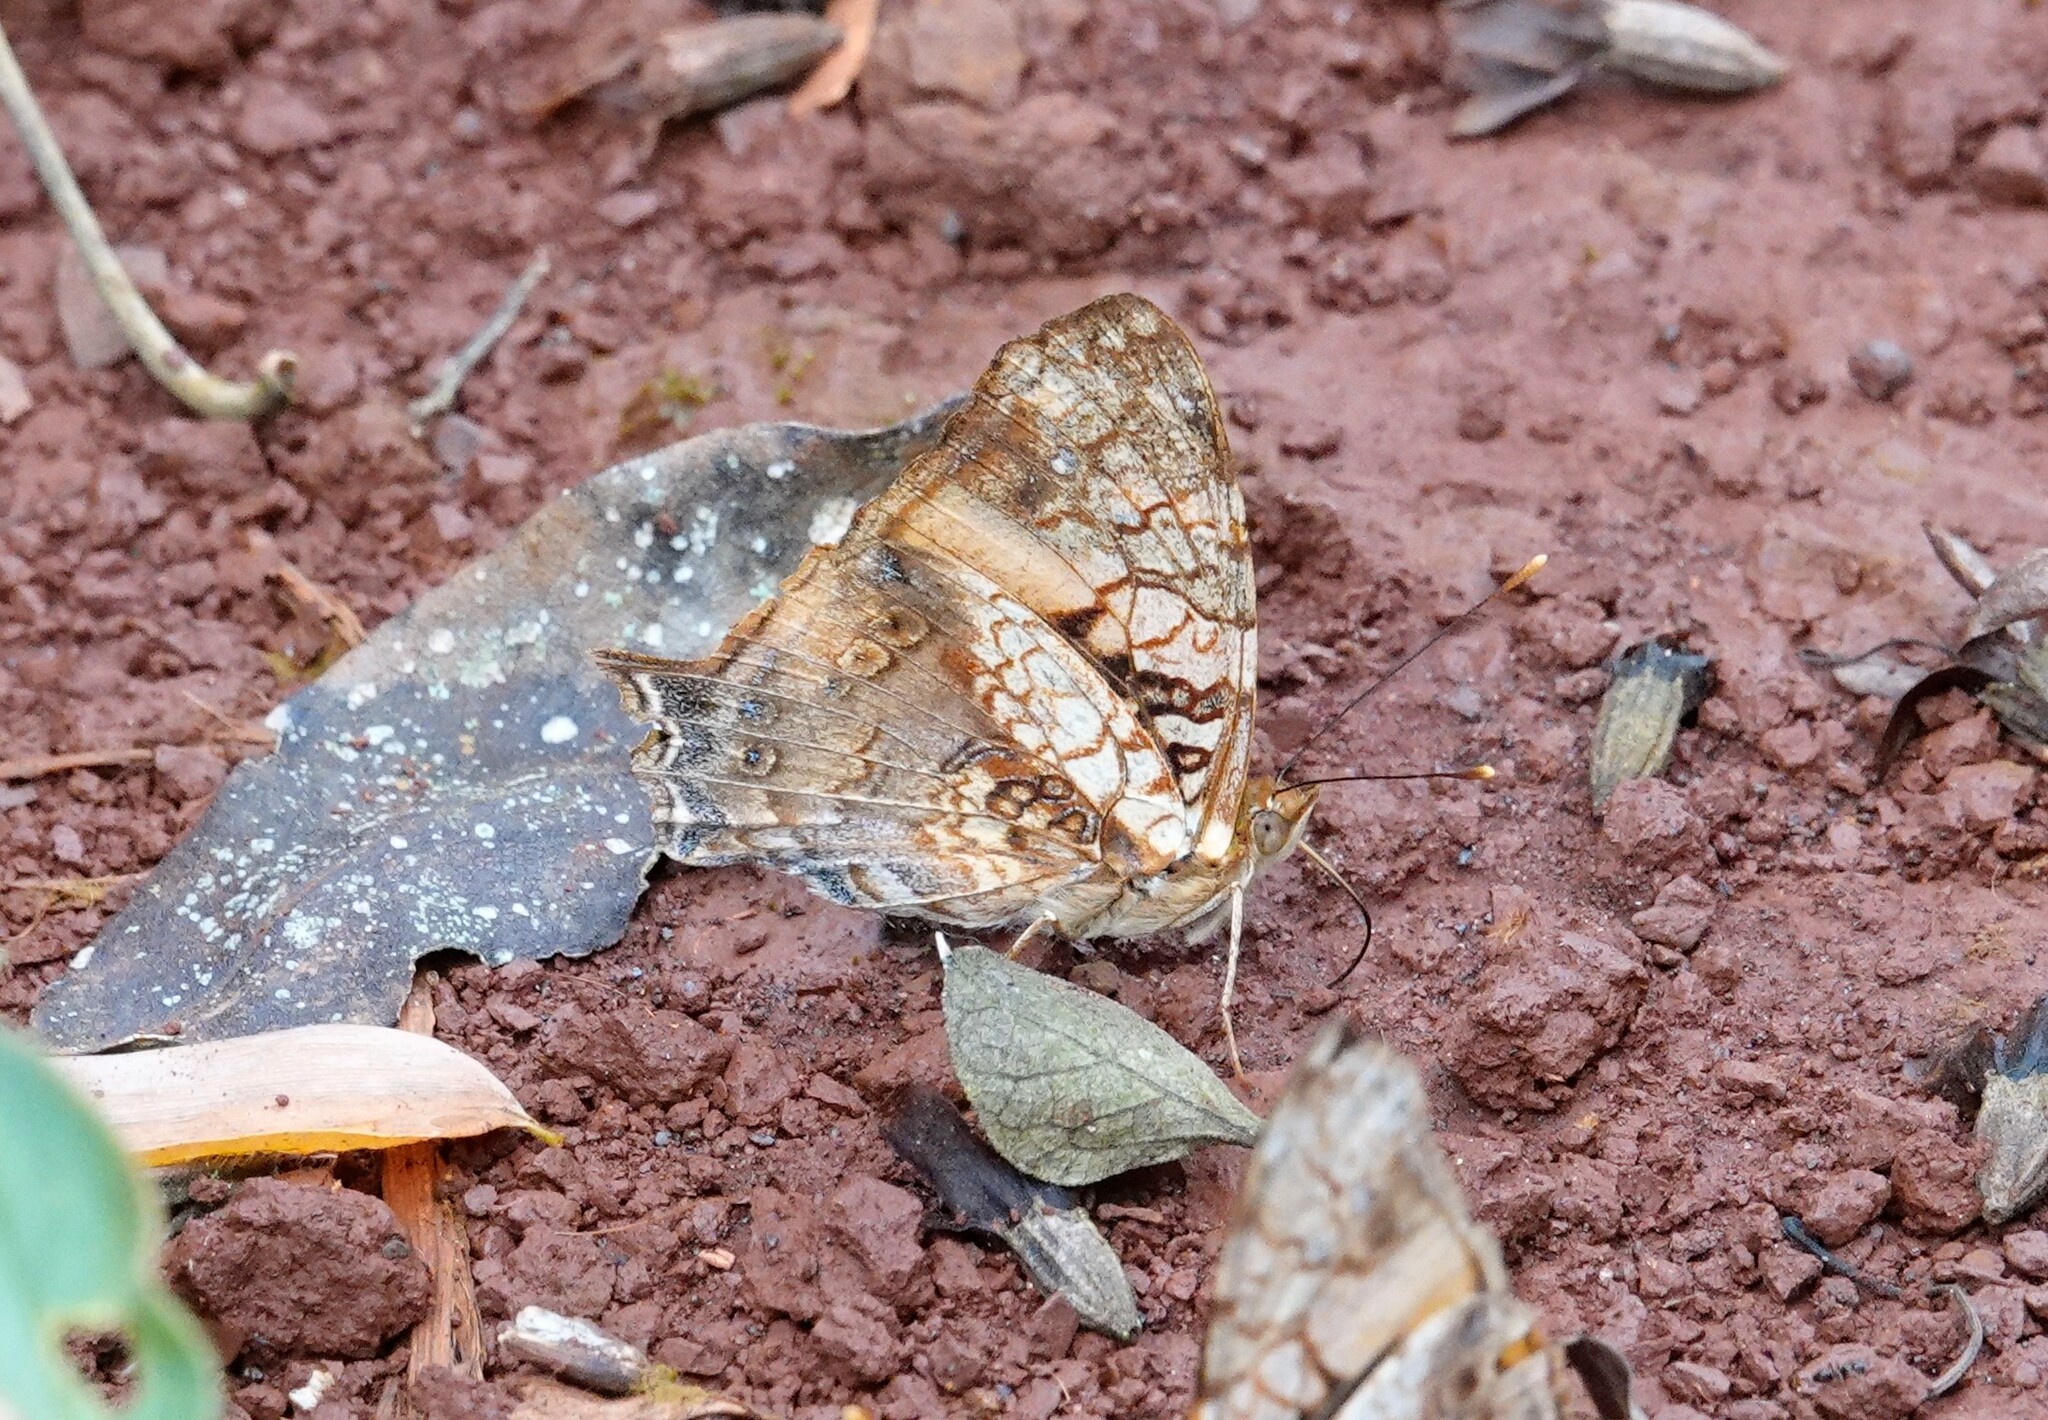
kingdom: Animalia
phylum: Arthropoda
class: Insecta
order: Lepidoptera
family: Nymphalidae
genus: Hypanartia
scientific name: Hypanartia lethe
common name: Orange mapwing
